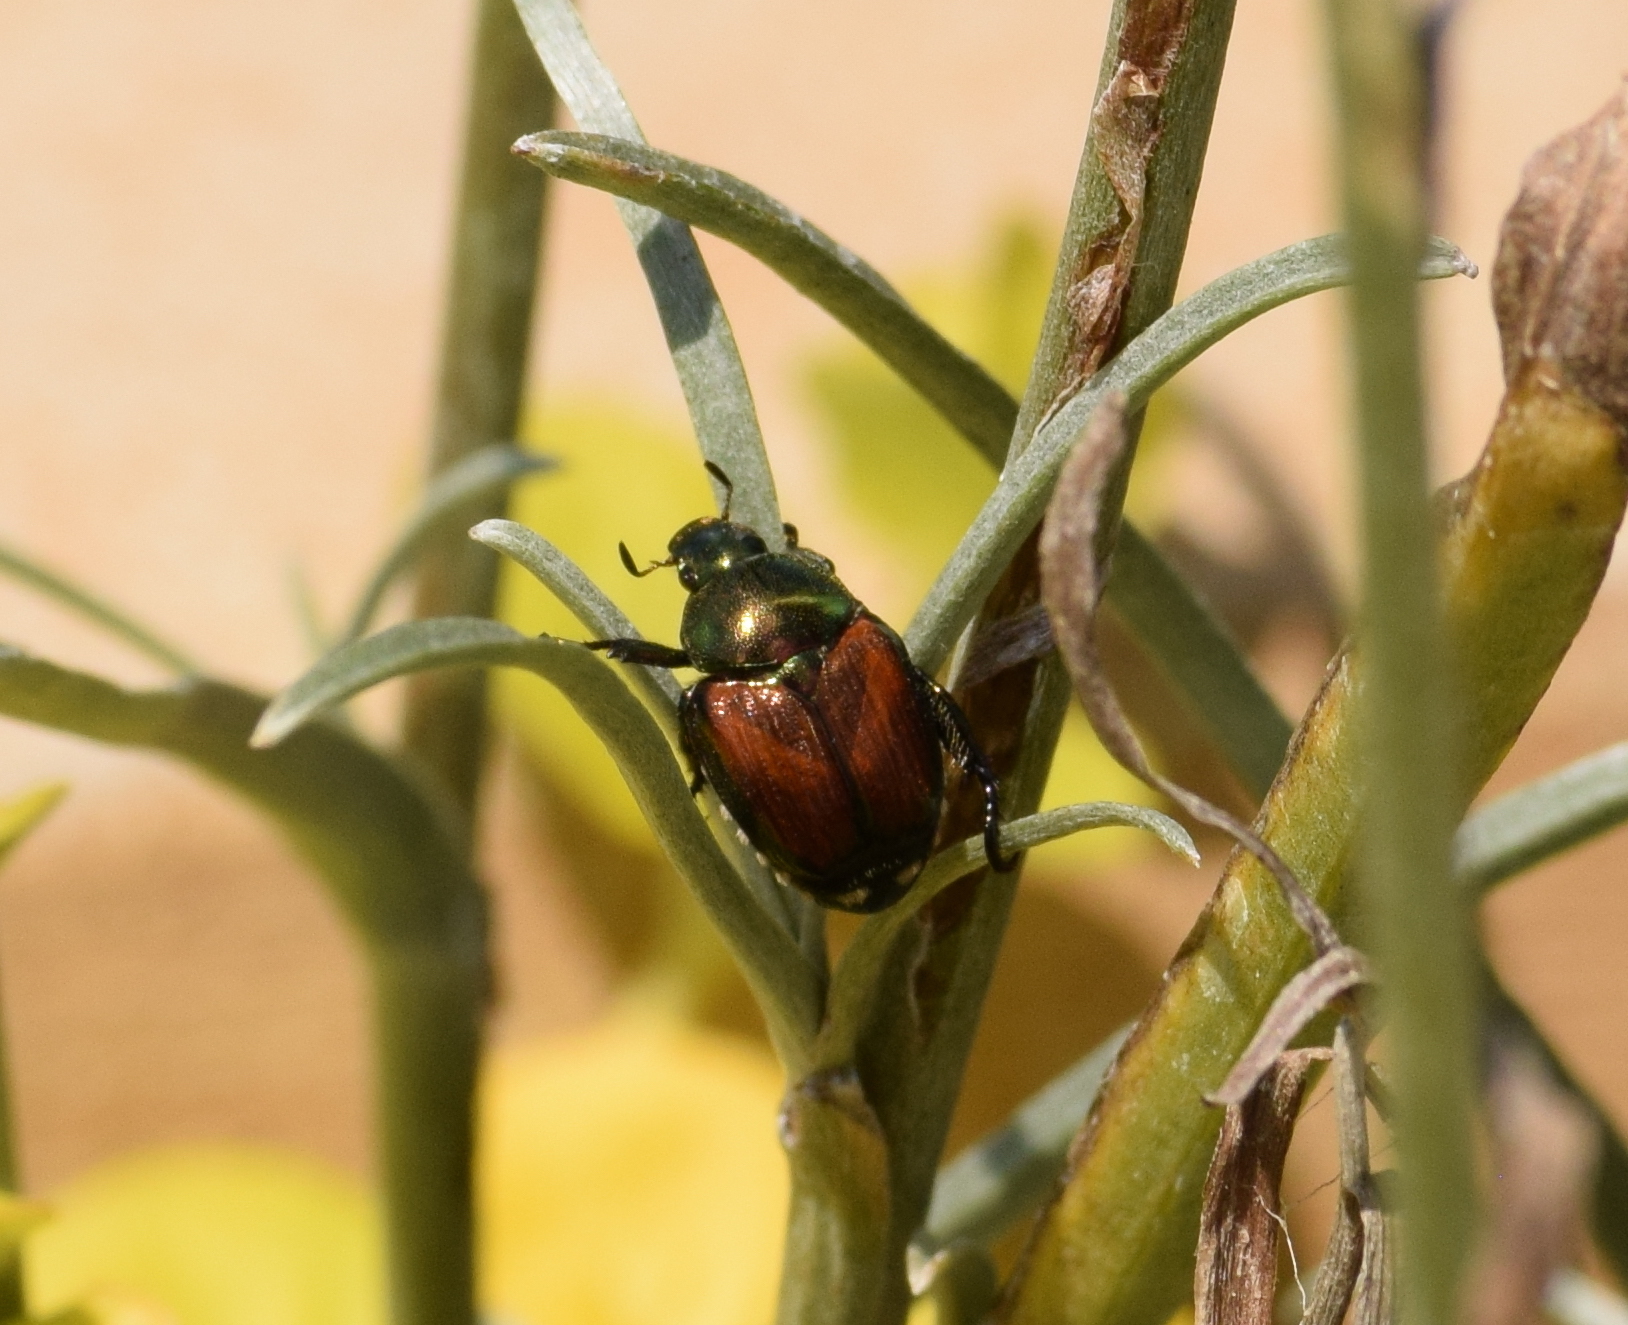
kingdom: Animalia
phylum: Arthropoda
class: Insecta
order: Coleoptera
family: Scarabaeidae
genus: Popillia
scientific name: Popillia japonica
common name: Japanese beetle
